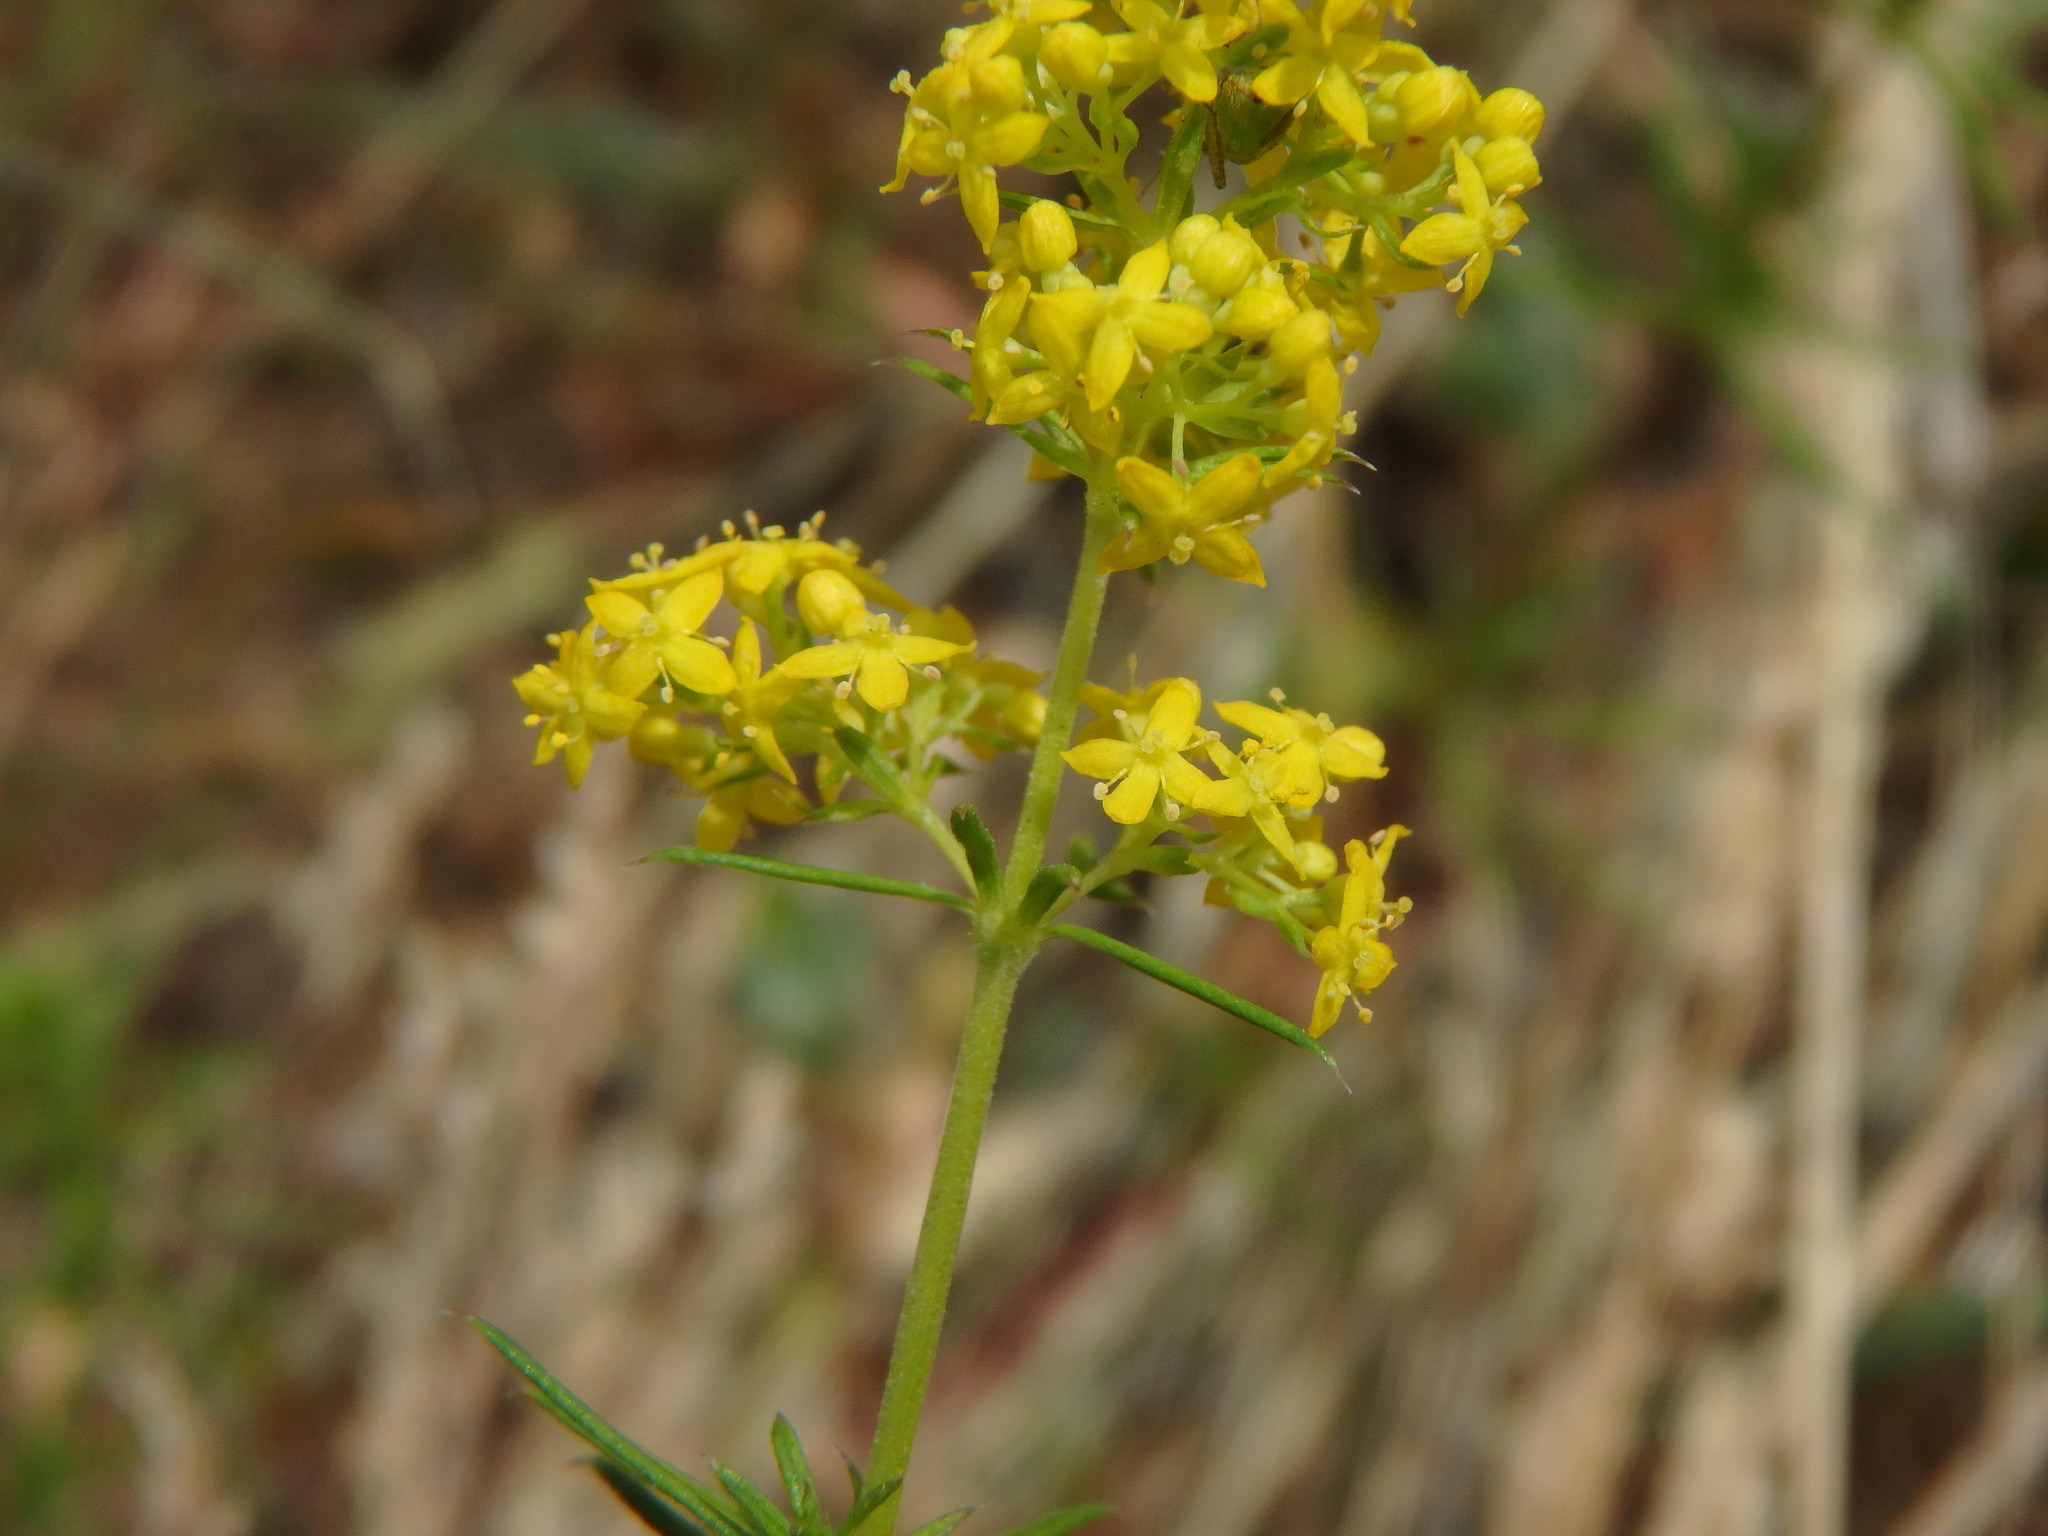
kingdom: Plantae
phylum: Tracheophyta
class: Magnoliopsida
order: Gentianales
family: Rubiaceae
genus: Galium
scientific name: Galium verum
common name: Lady's bedstraw
